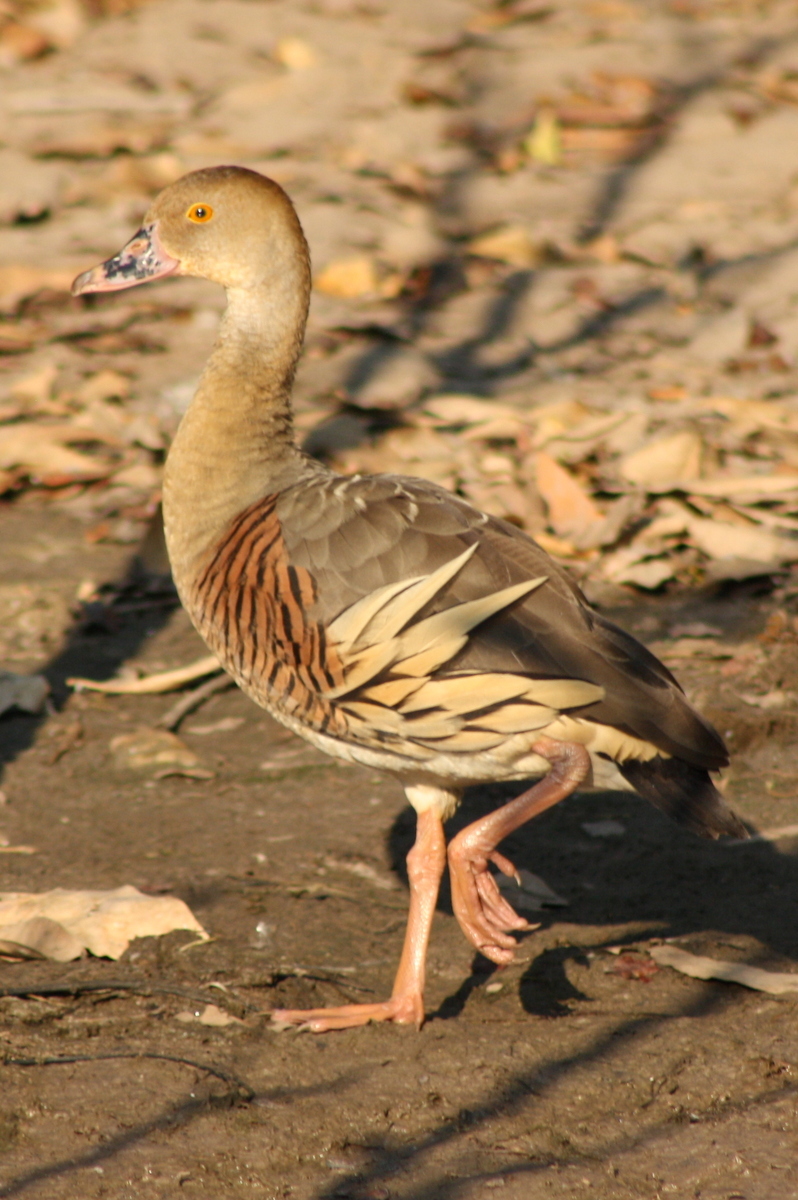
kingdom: Animalia
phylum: Chordata
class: Aves
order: Anseriformes
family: Anatidae
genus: Dendrocygna
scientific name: Dendrocygna eytoni
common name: Plumed whistling-duck
